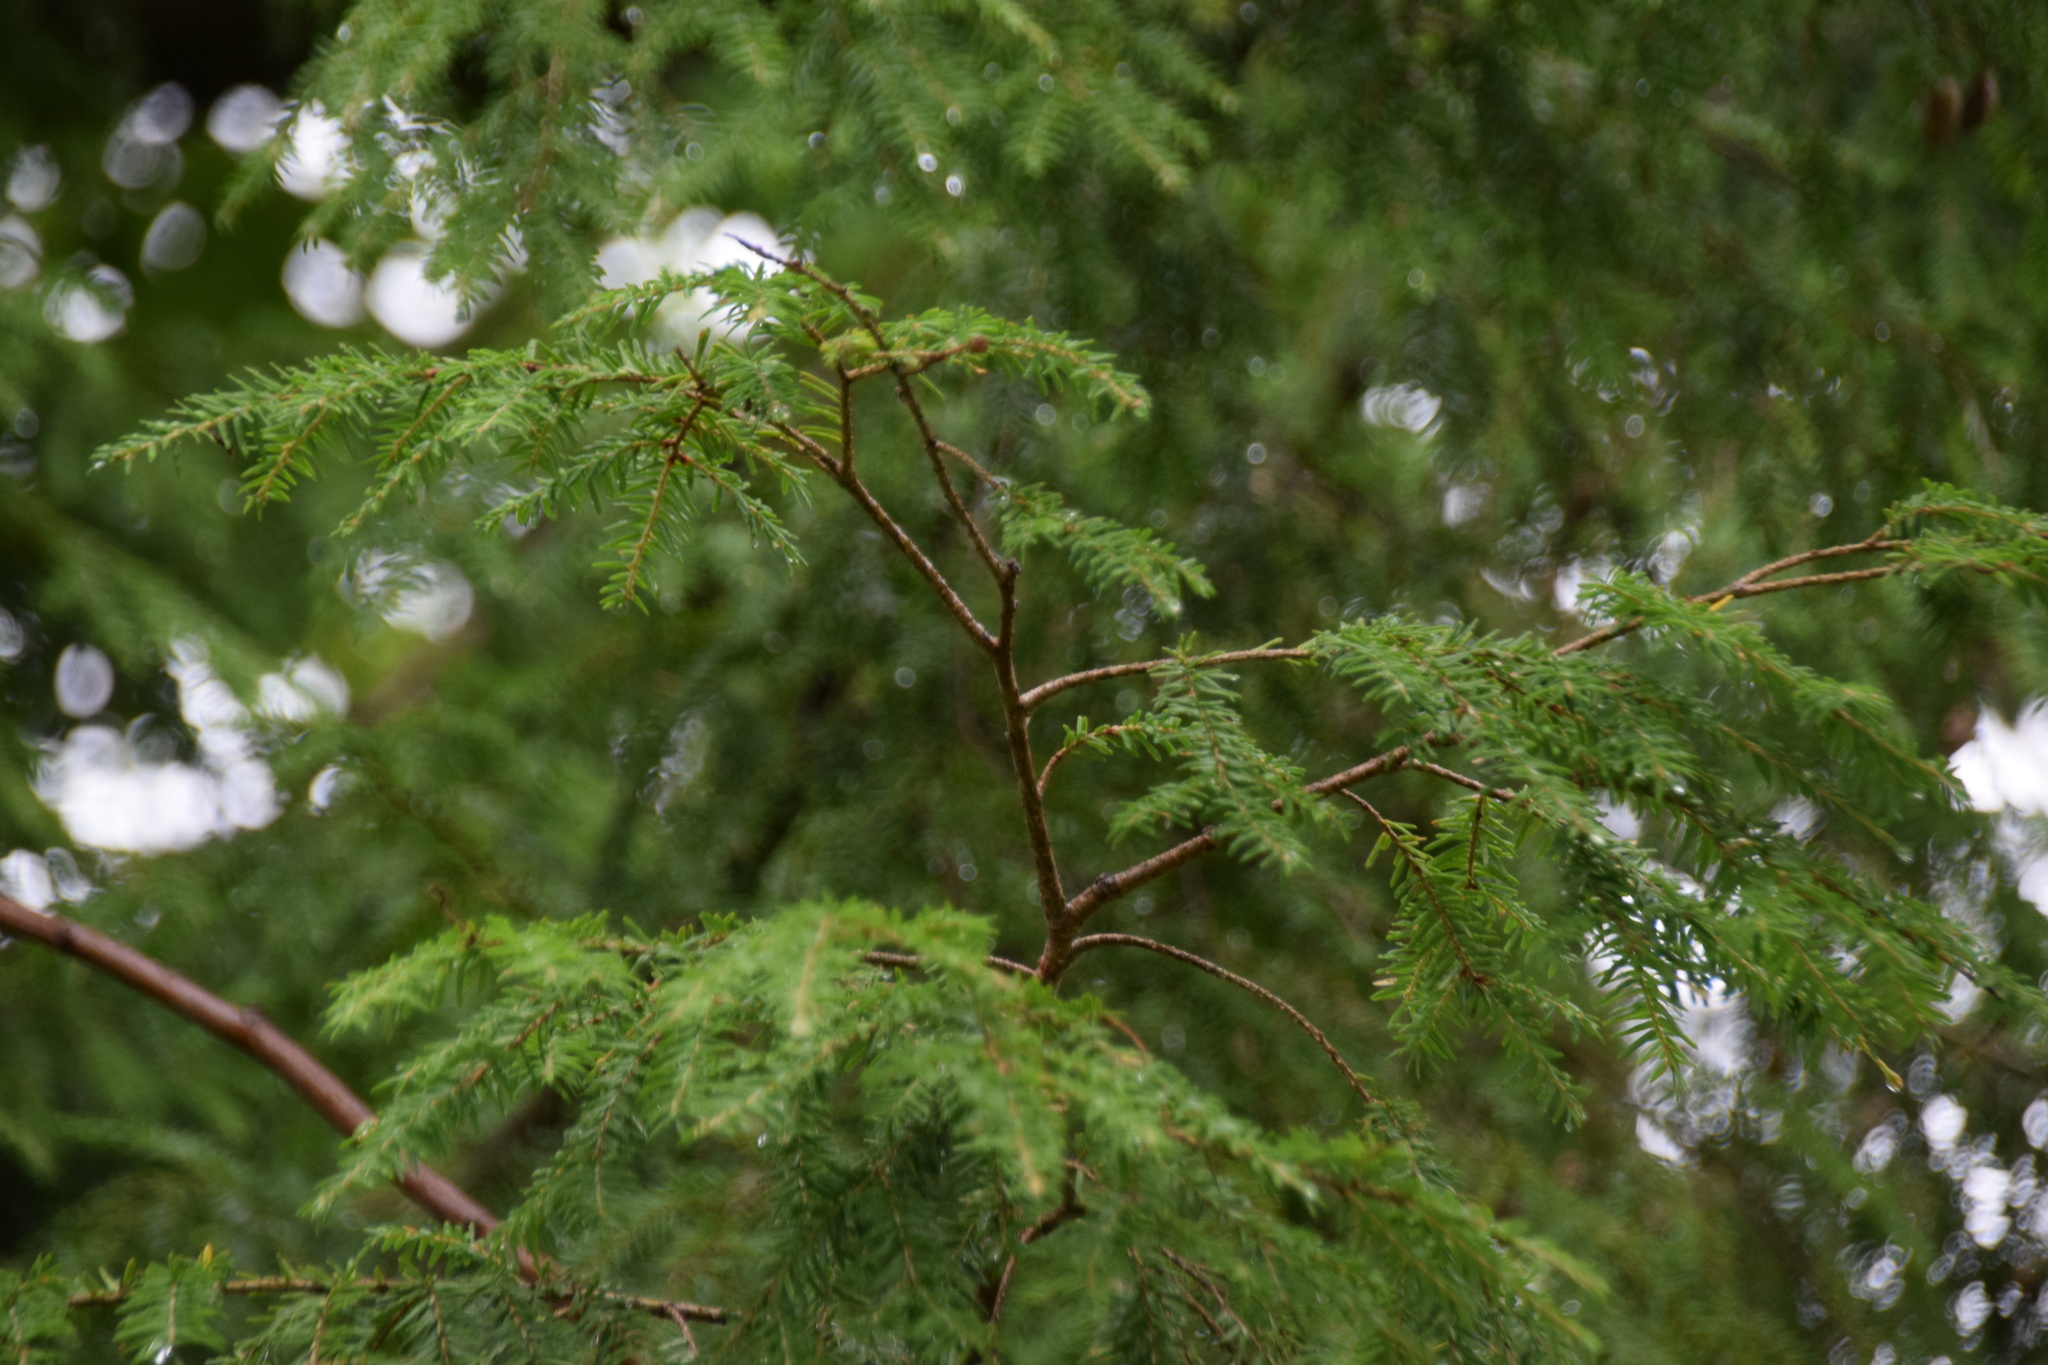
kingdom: Plantae
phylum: Tracheophyta
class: Pinopsida
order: Pinales
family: Pinaceae
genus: Tsuga
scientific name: Tsuga canadensis
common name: Eastern hemlock
